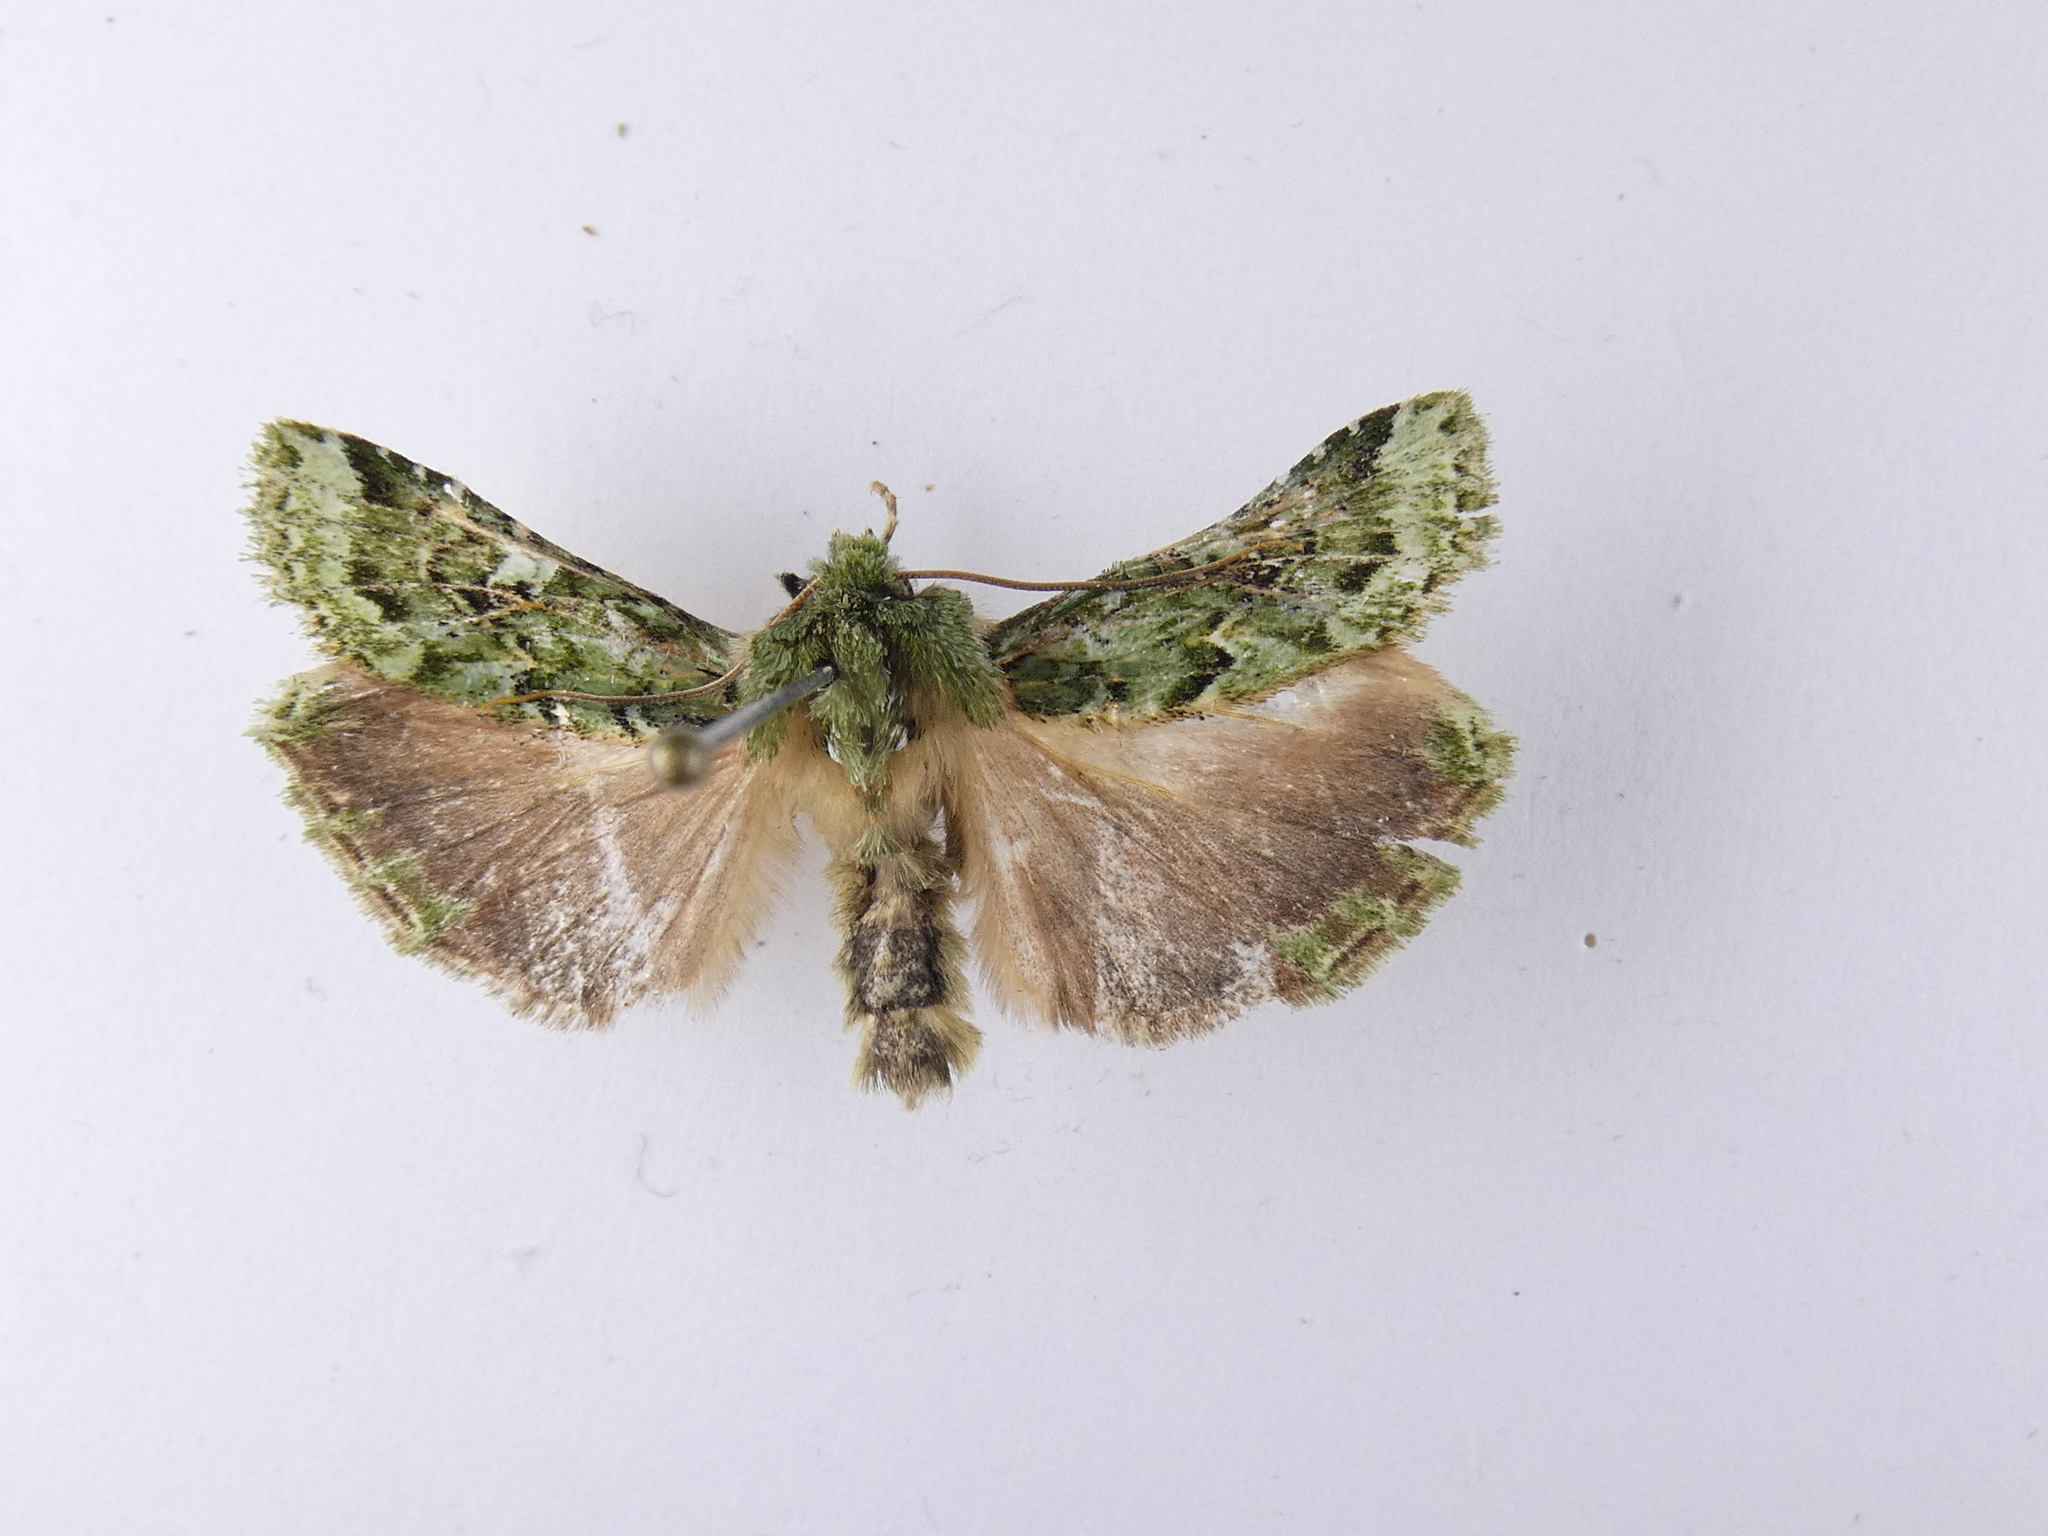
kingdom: Animalia
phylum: Arthropoda
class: Insecta
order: Lepidoptera
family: Noctuidae
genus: Feredayia
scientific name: Feredayia grammosa
